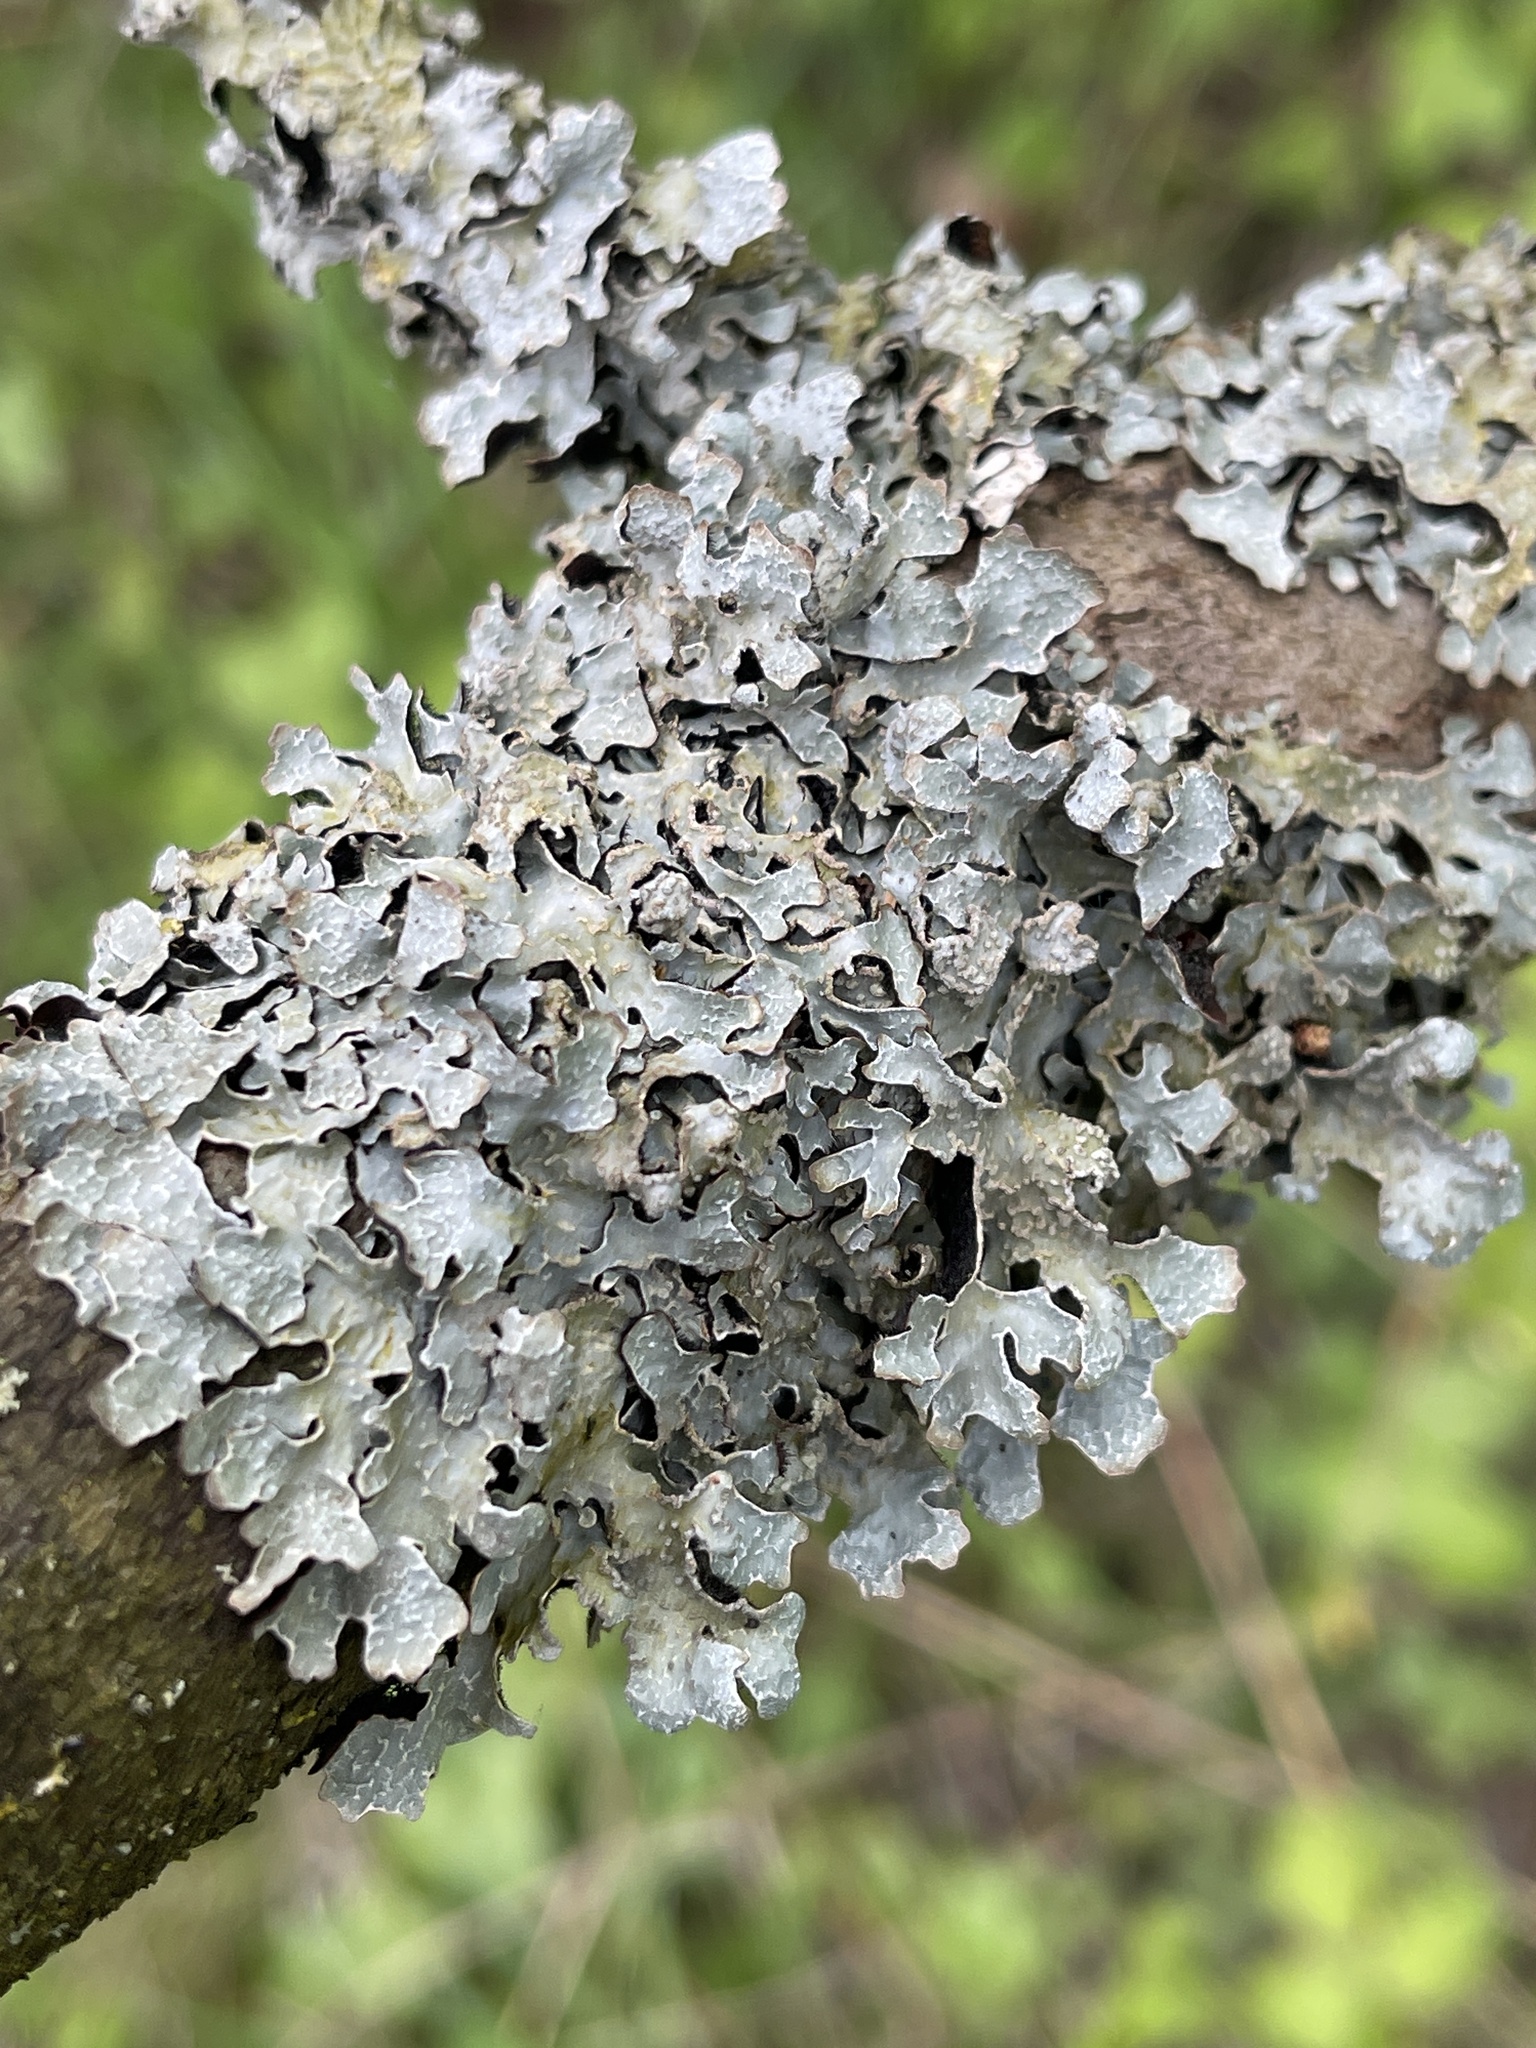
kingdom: Fungi
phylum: Ascomycota
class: Lecanoromycetes
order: Lecanorales
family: Parmeliaceae
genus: Parmelia
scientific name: Parmelia sulcata
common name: Netted shield lichen
